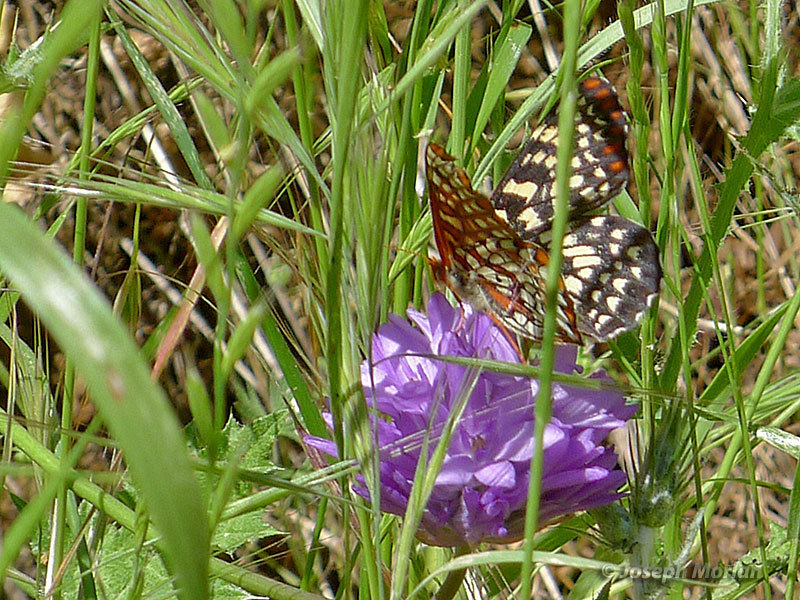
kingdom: Animalia
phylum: Arthropoda
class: Insecta
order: Lepidoptera
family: Nymphalidae
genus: Occidryas
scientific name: Occidryas chalcedona
